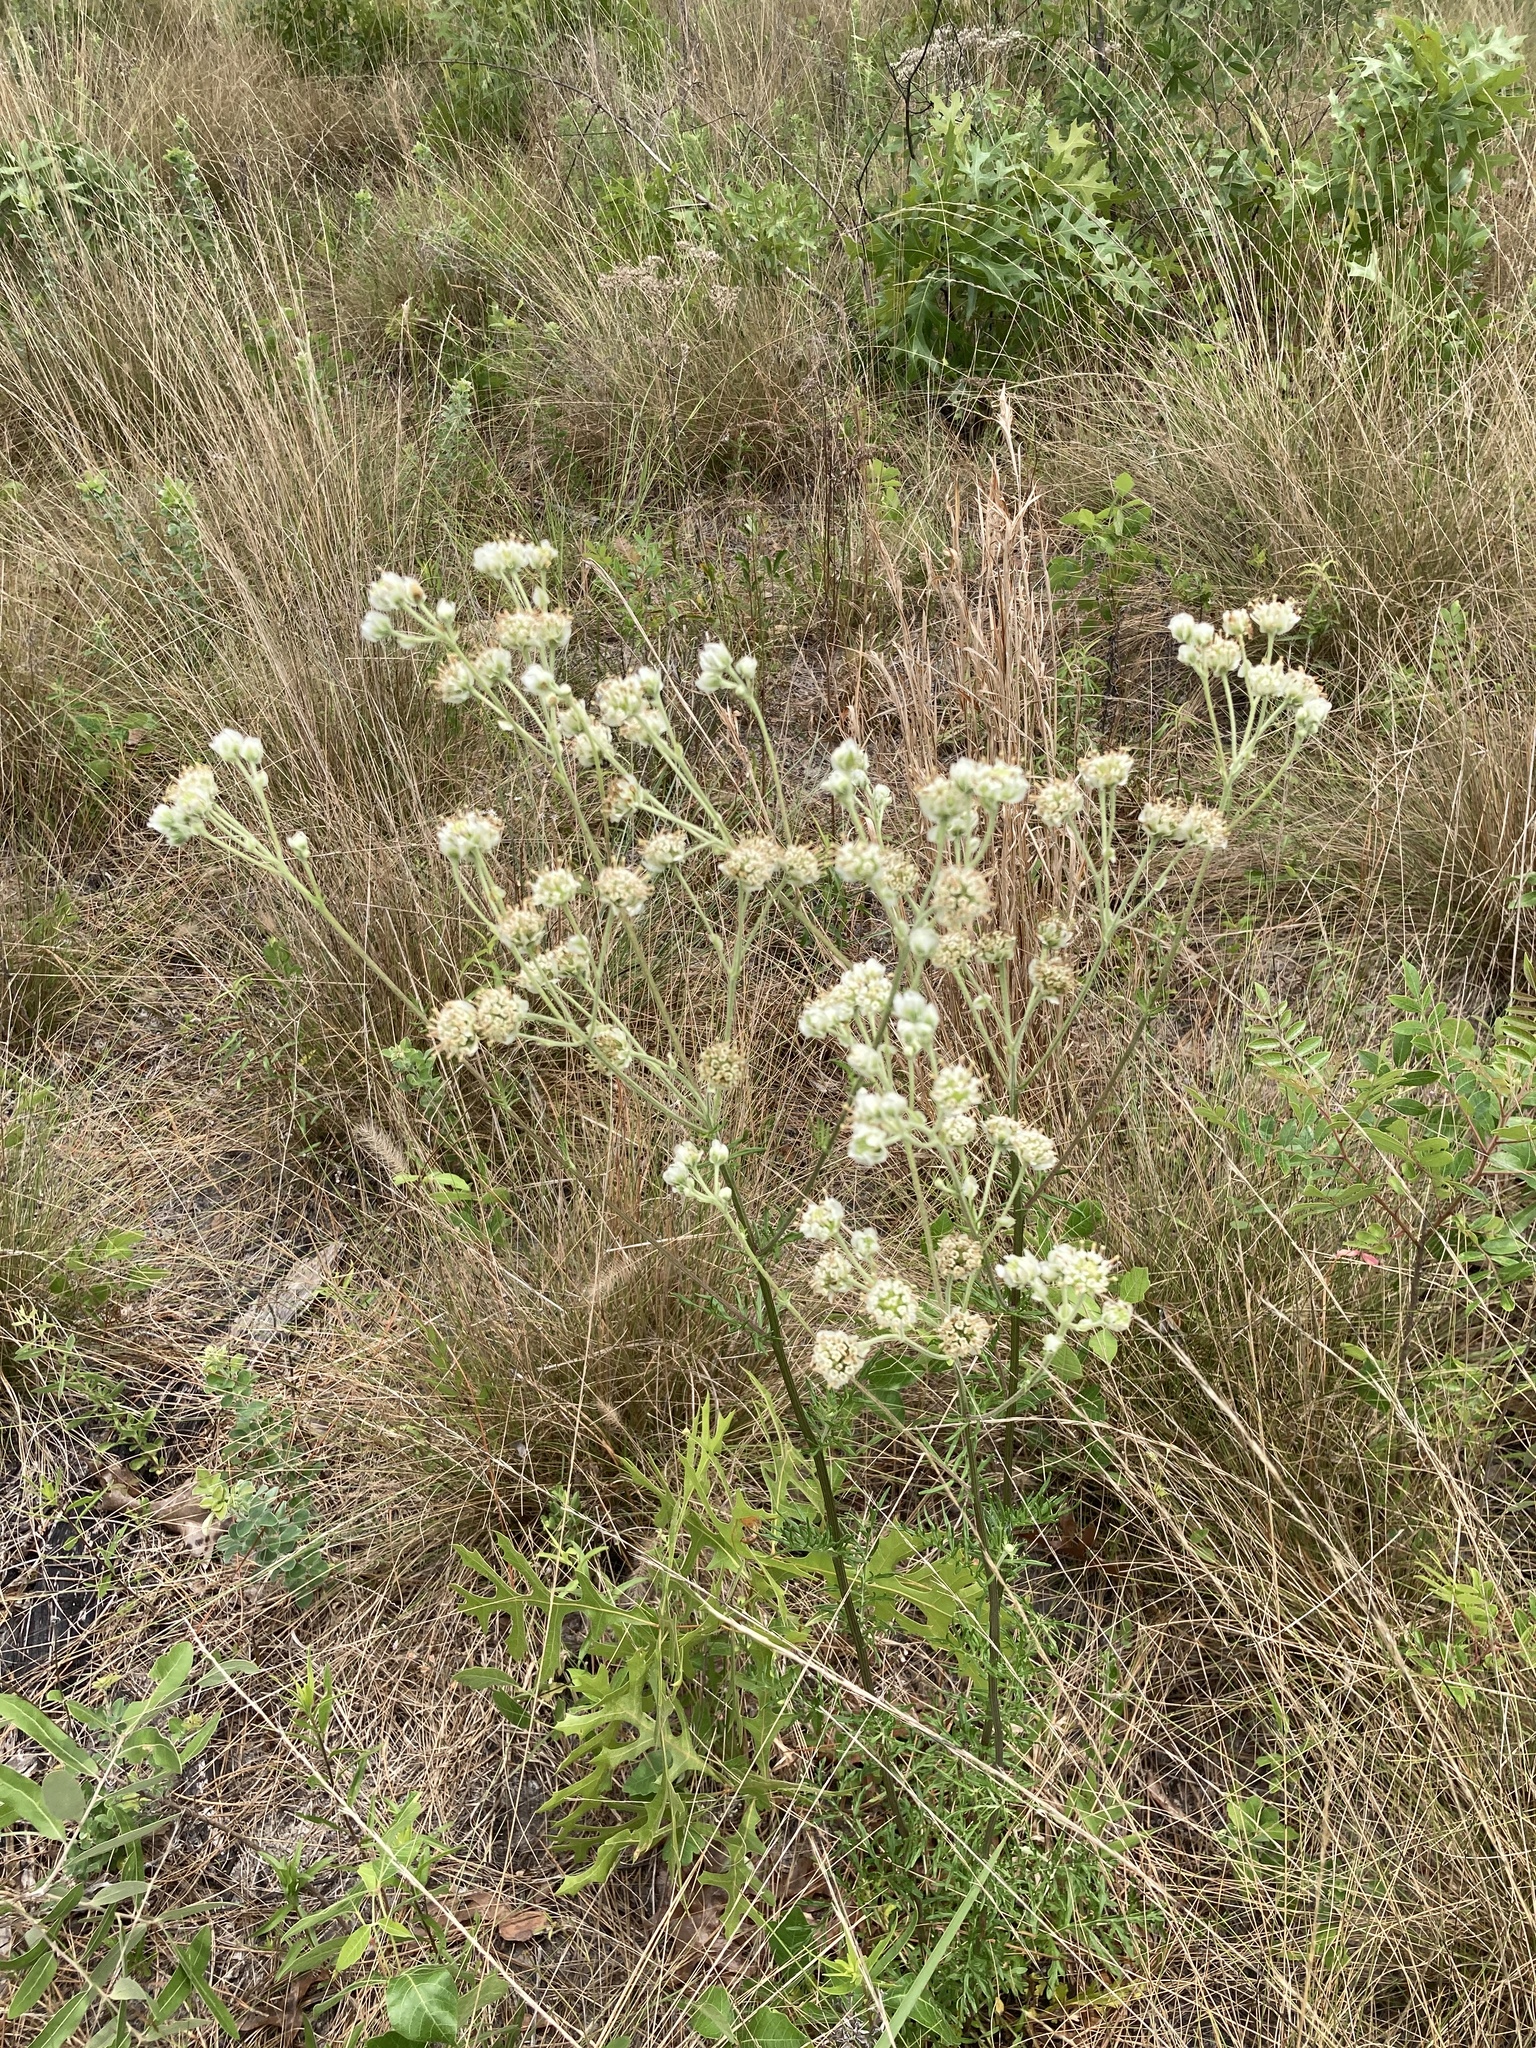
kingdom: Plantae
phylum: Tracheophyta
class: Magnoliopsida
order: Asterales
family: Asteraceae
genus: Hymenopappus
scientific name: Hymenopappus scabiosaeus
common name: Carolina woollywhite
